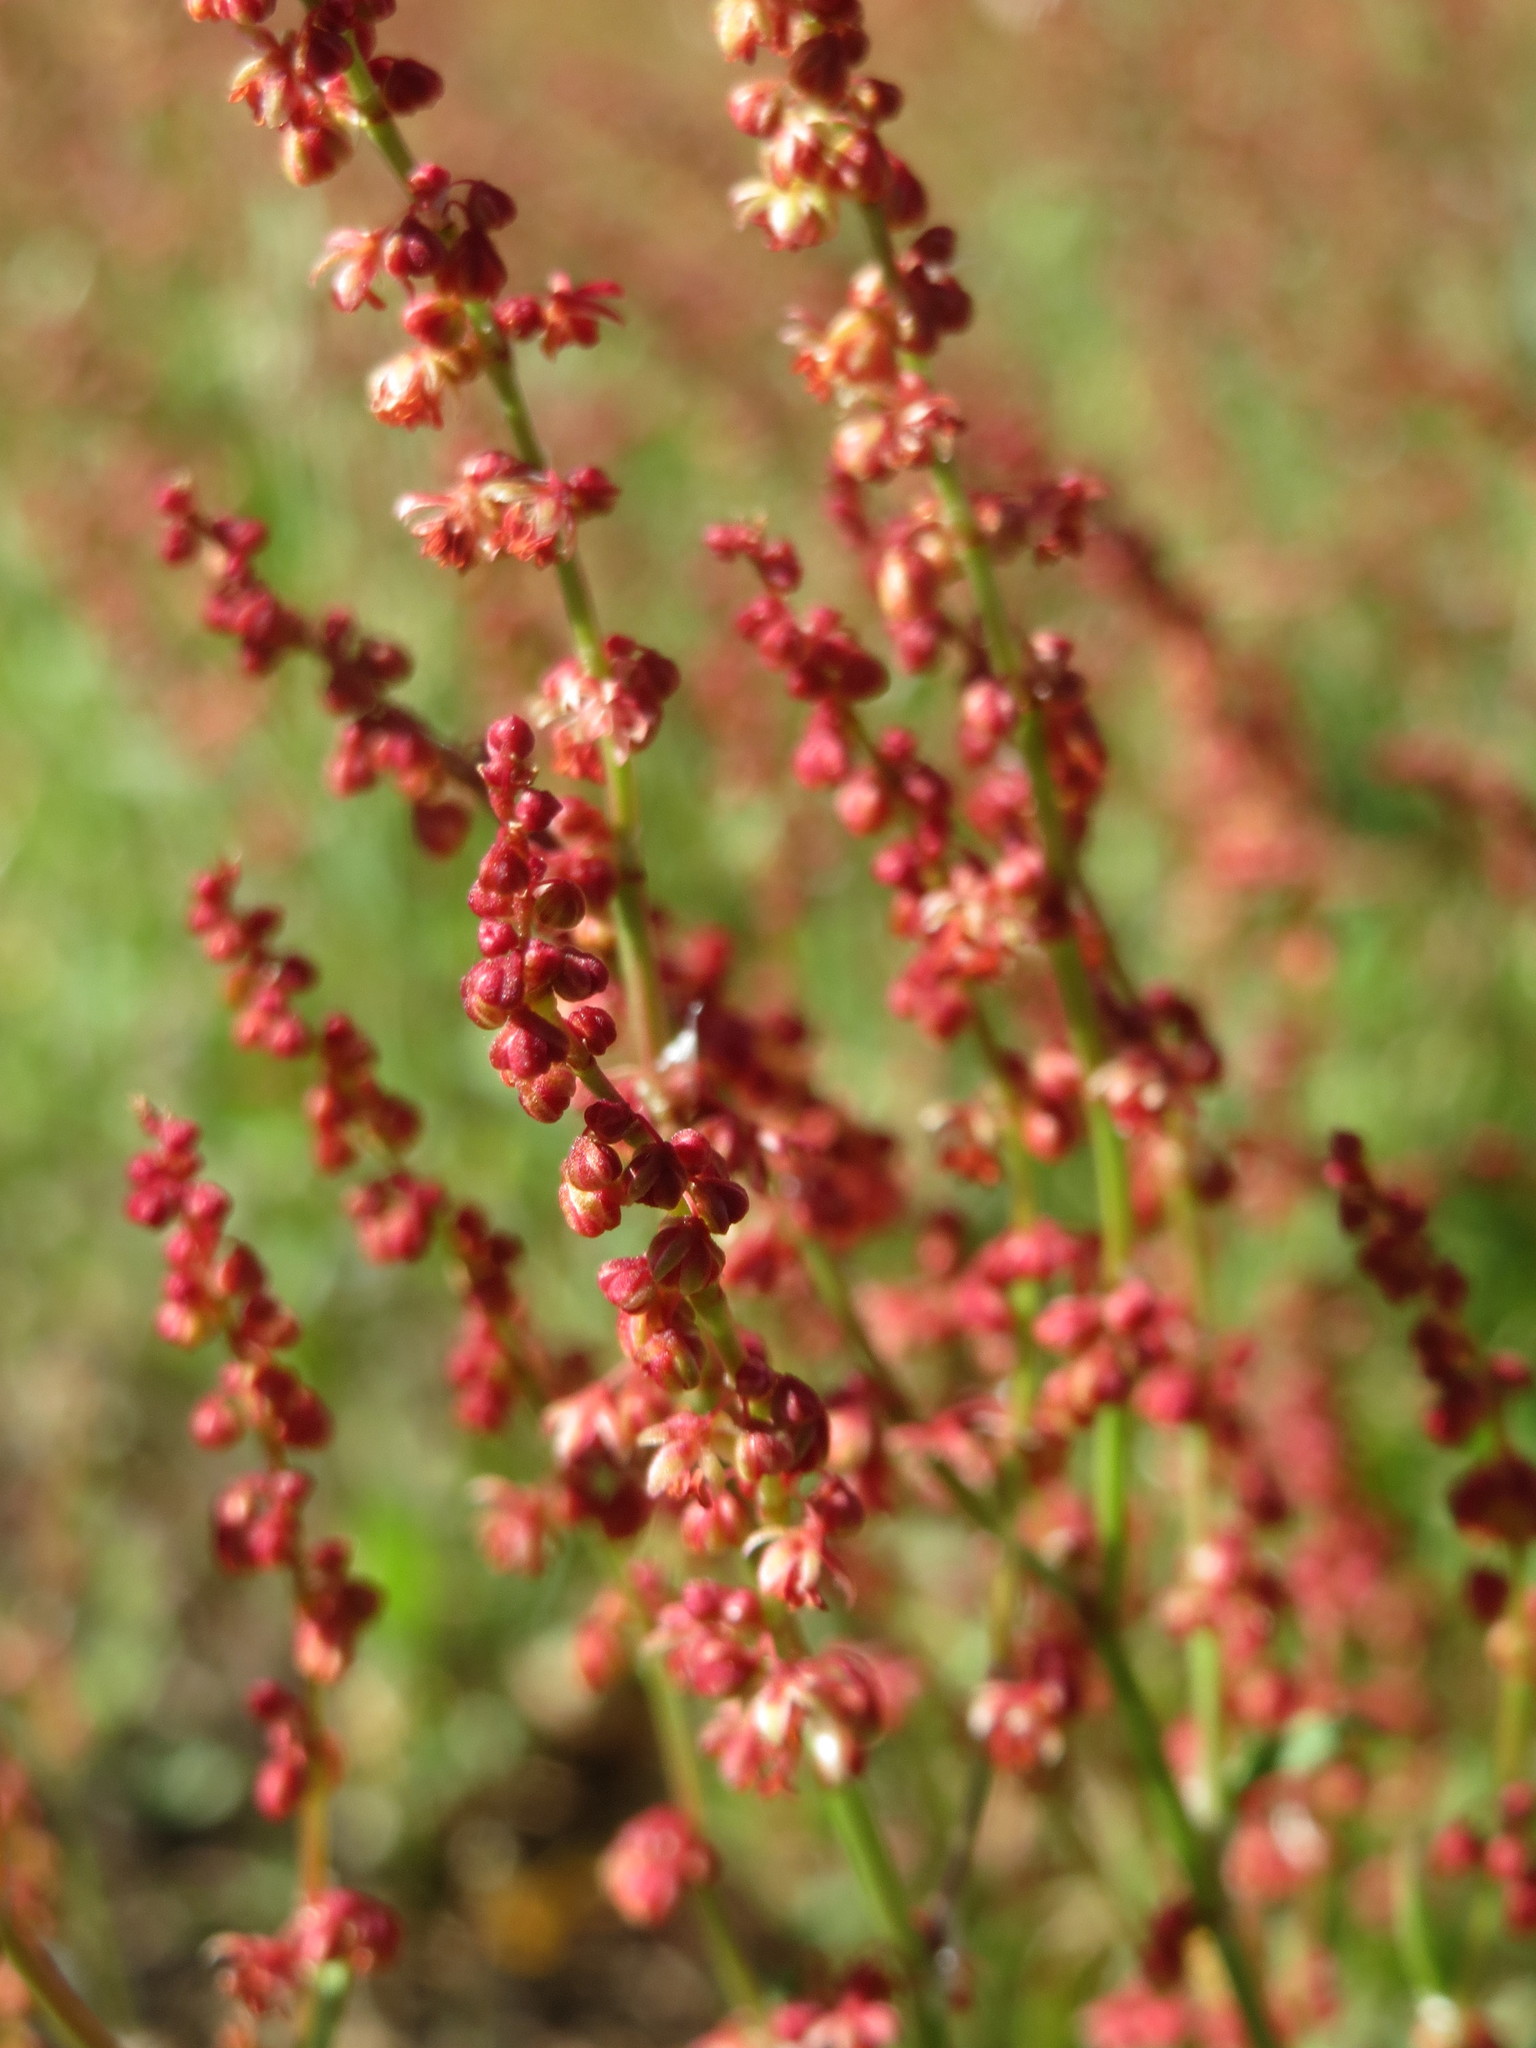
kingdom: Plantae
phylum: Tracheophyta
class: Magnoliopsida
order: Caryophyllales
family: Polygonaceae
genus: Rumex
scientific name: Rumex acetosella
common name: Common sheep sorrel
